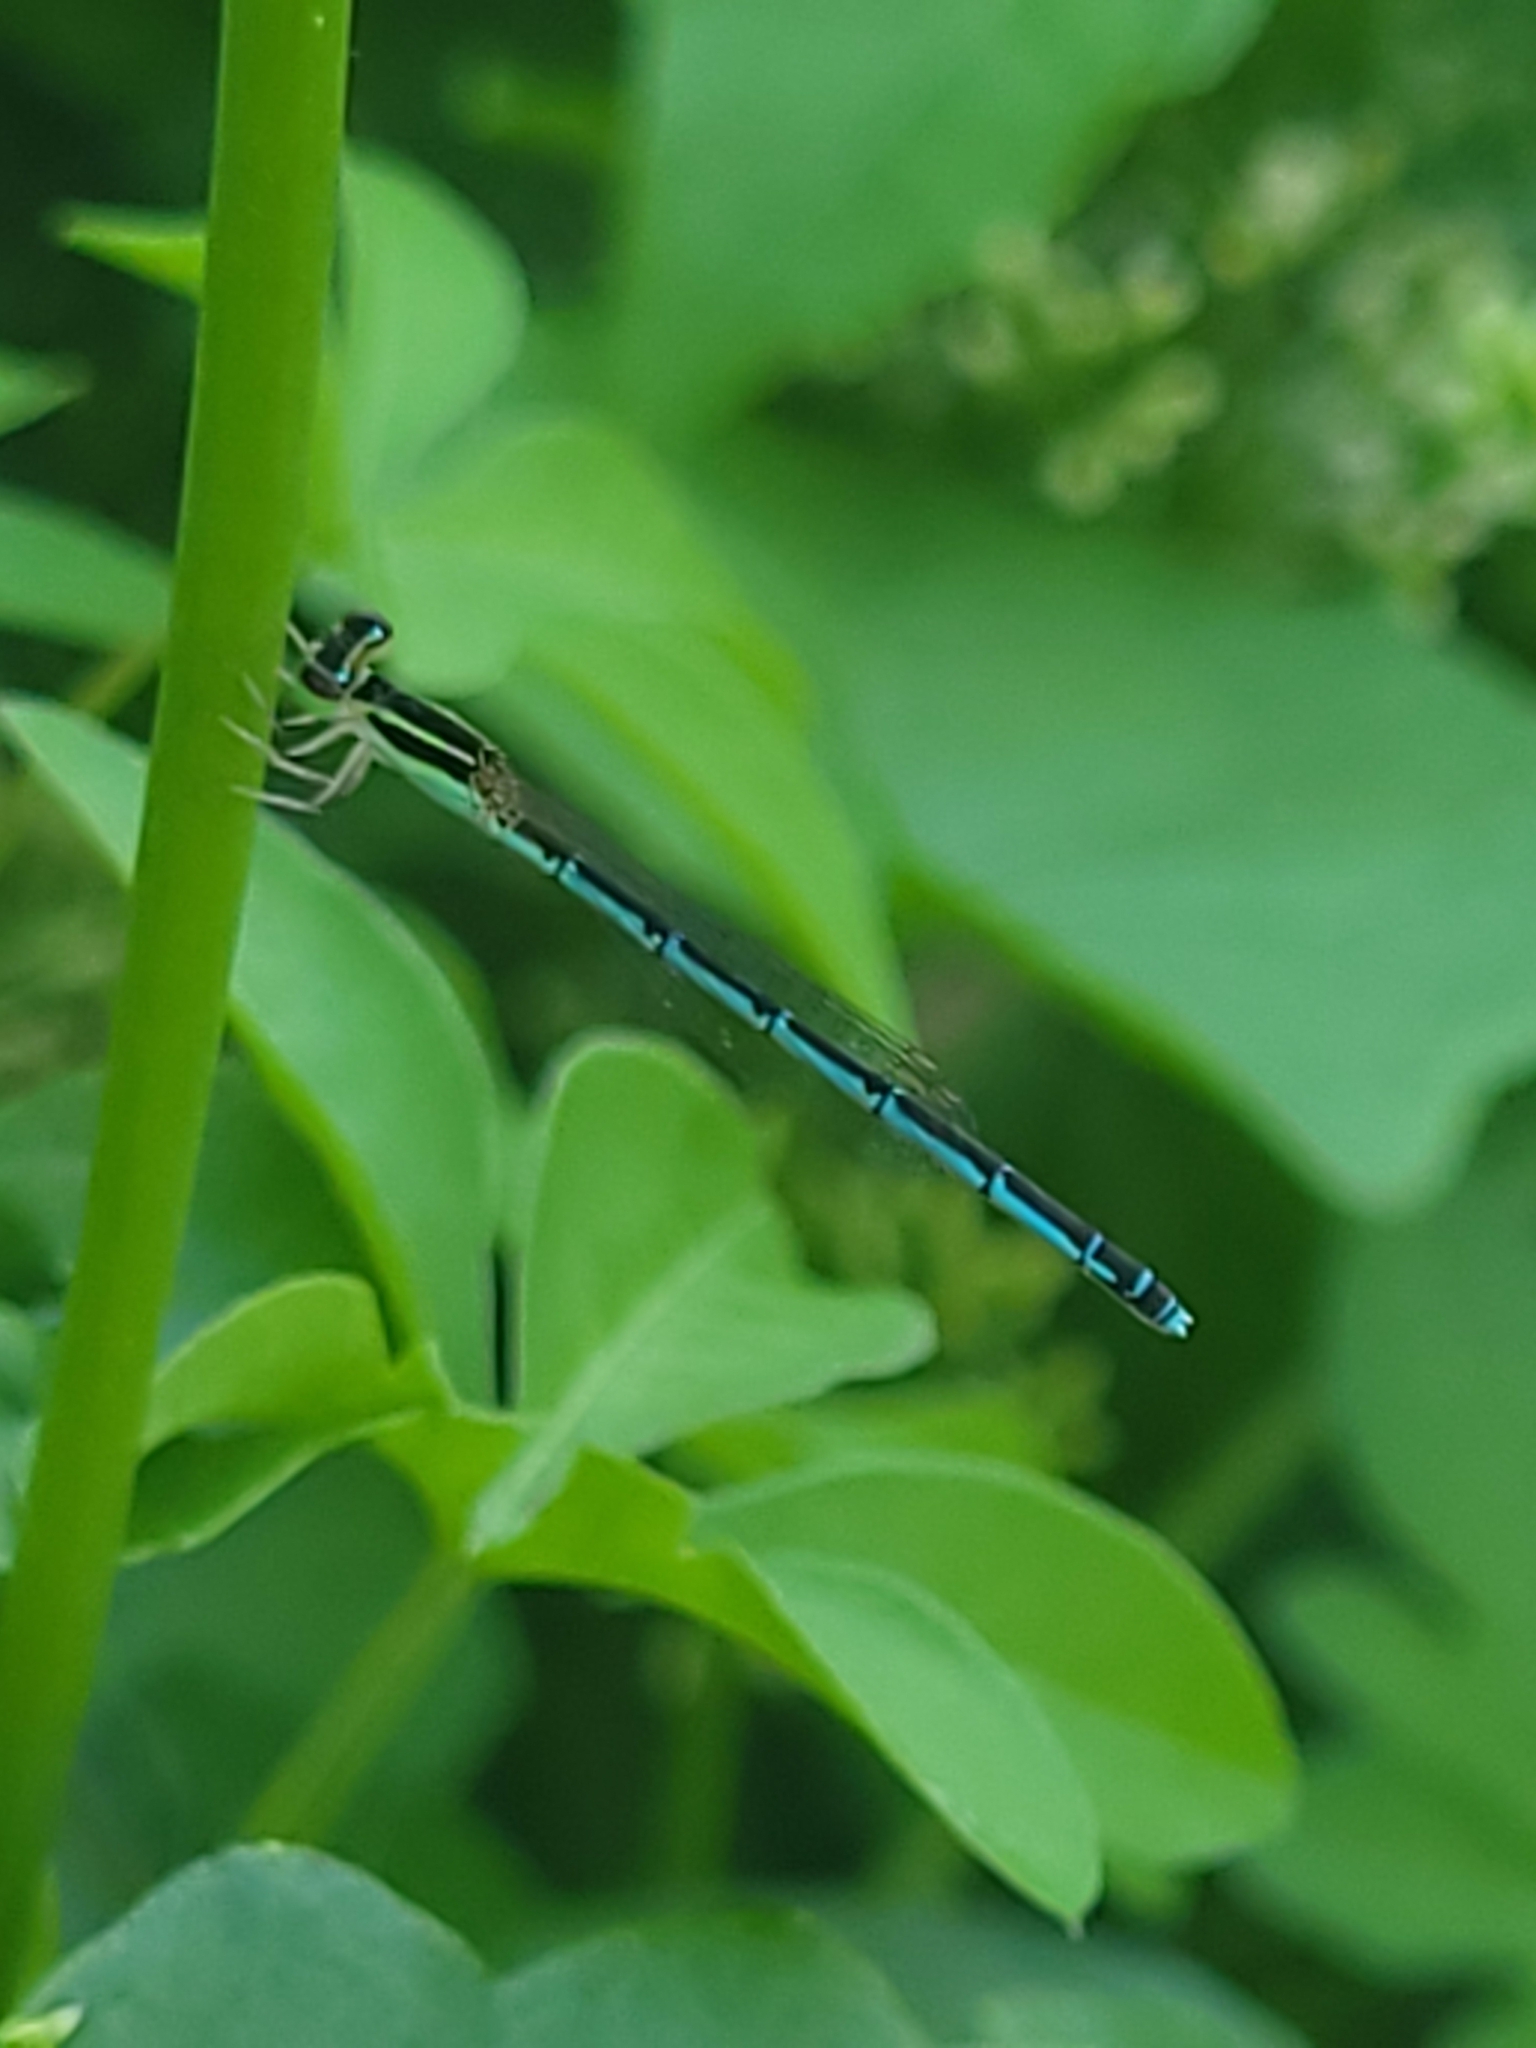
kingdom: Animalia
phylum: Arthropoda
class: Insecta
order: Odonata
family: Coenagrionidae
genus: Agriocnemis
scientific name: Agriocnemis pieris
